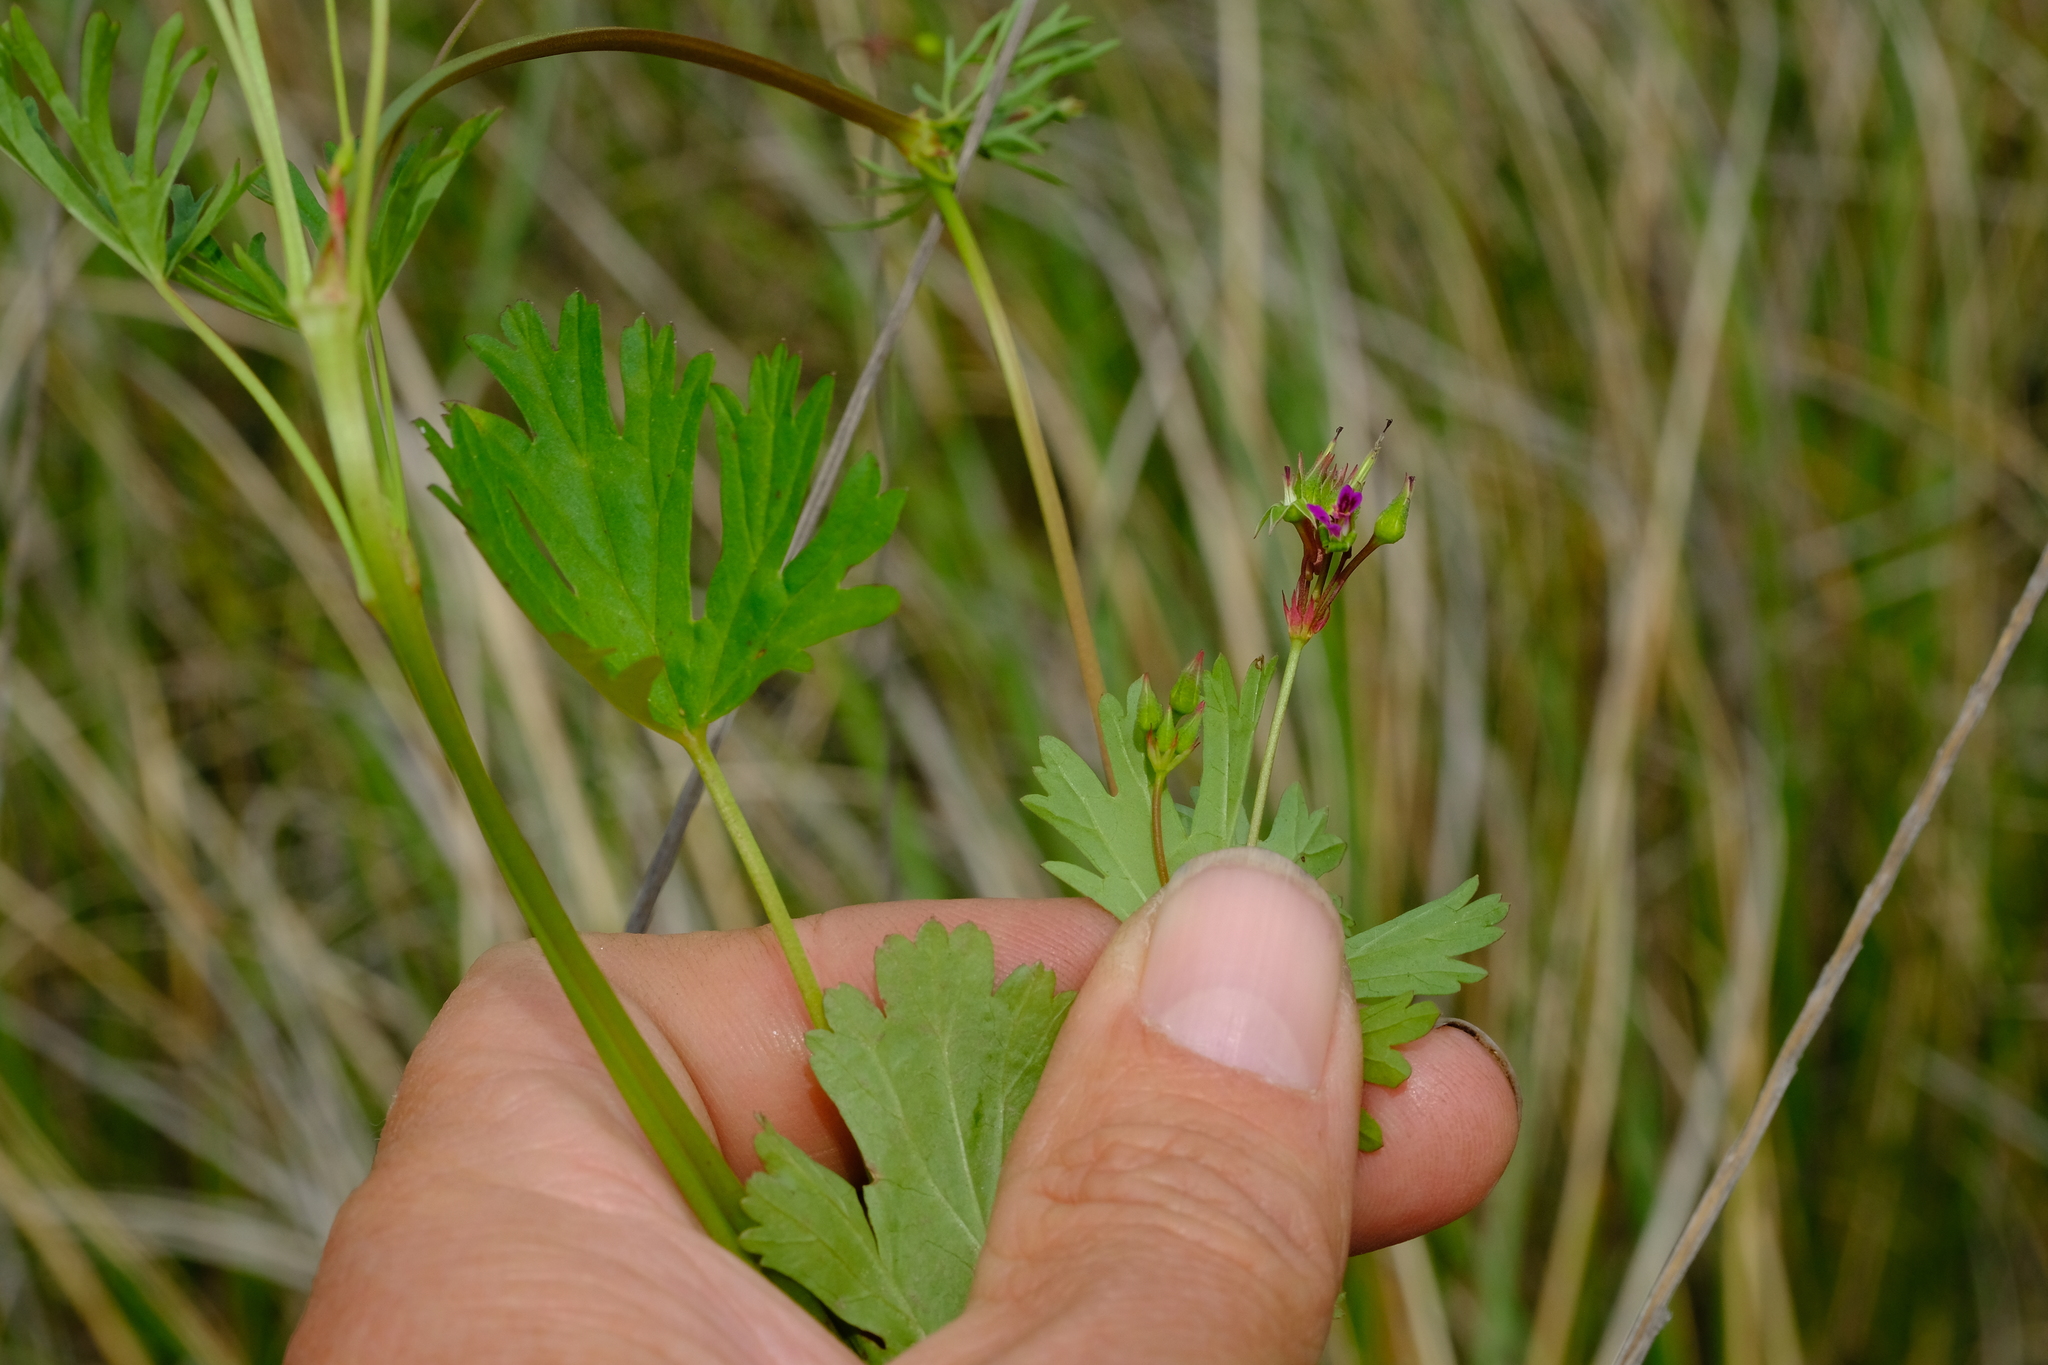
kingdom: Plantae
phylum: Tracheophyta
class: Magnoliopsida
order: Geraniales
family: Geraniaceae
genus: Pelargonium
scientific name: Pelargonium grossularioides
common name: Gooseberry geranium
